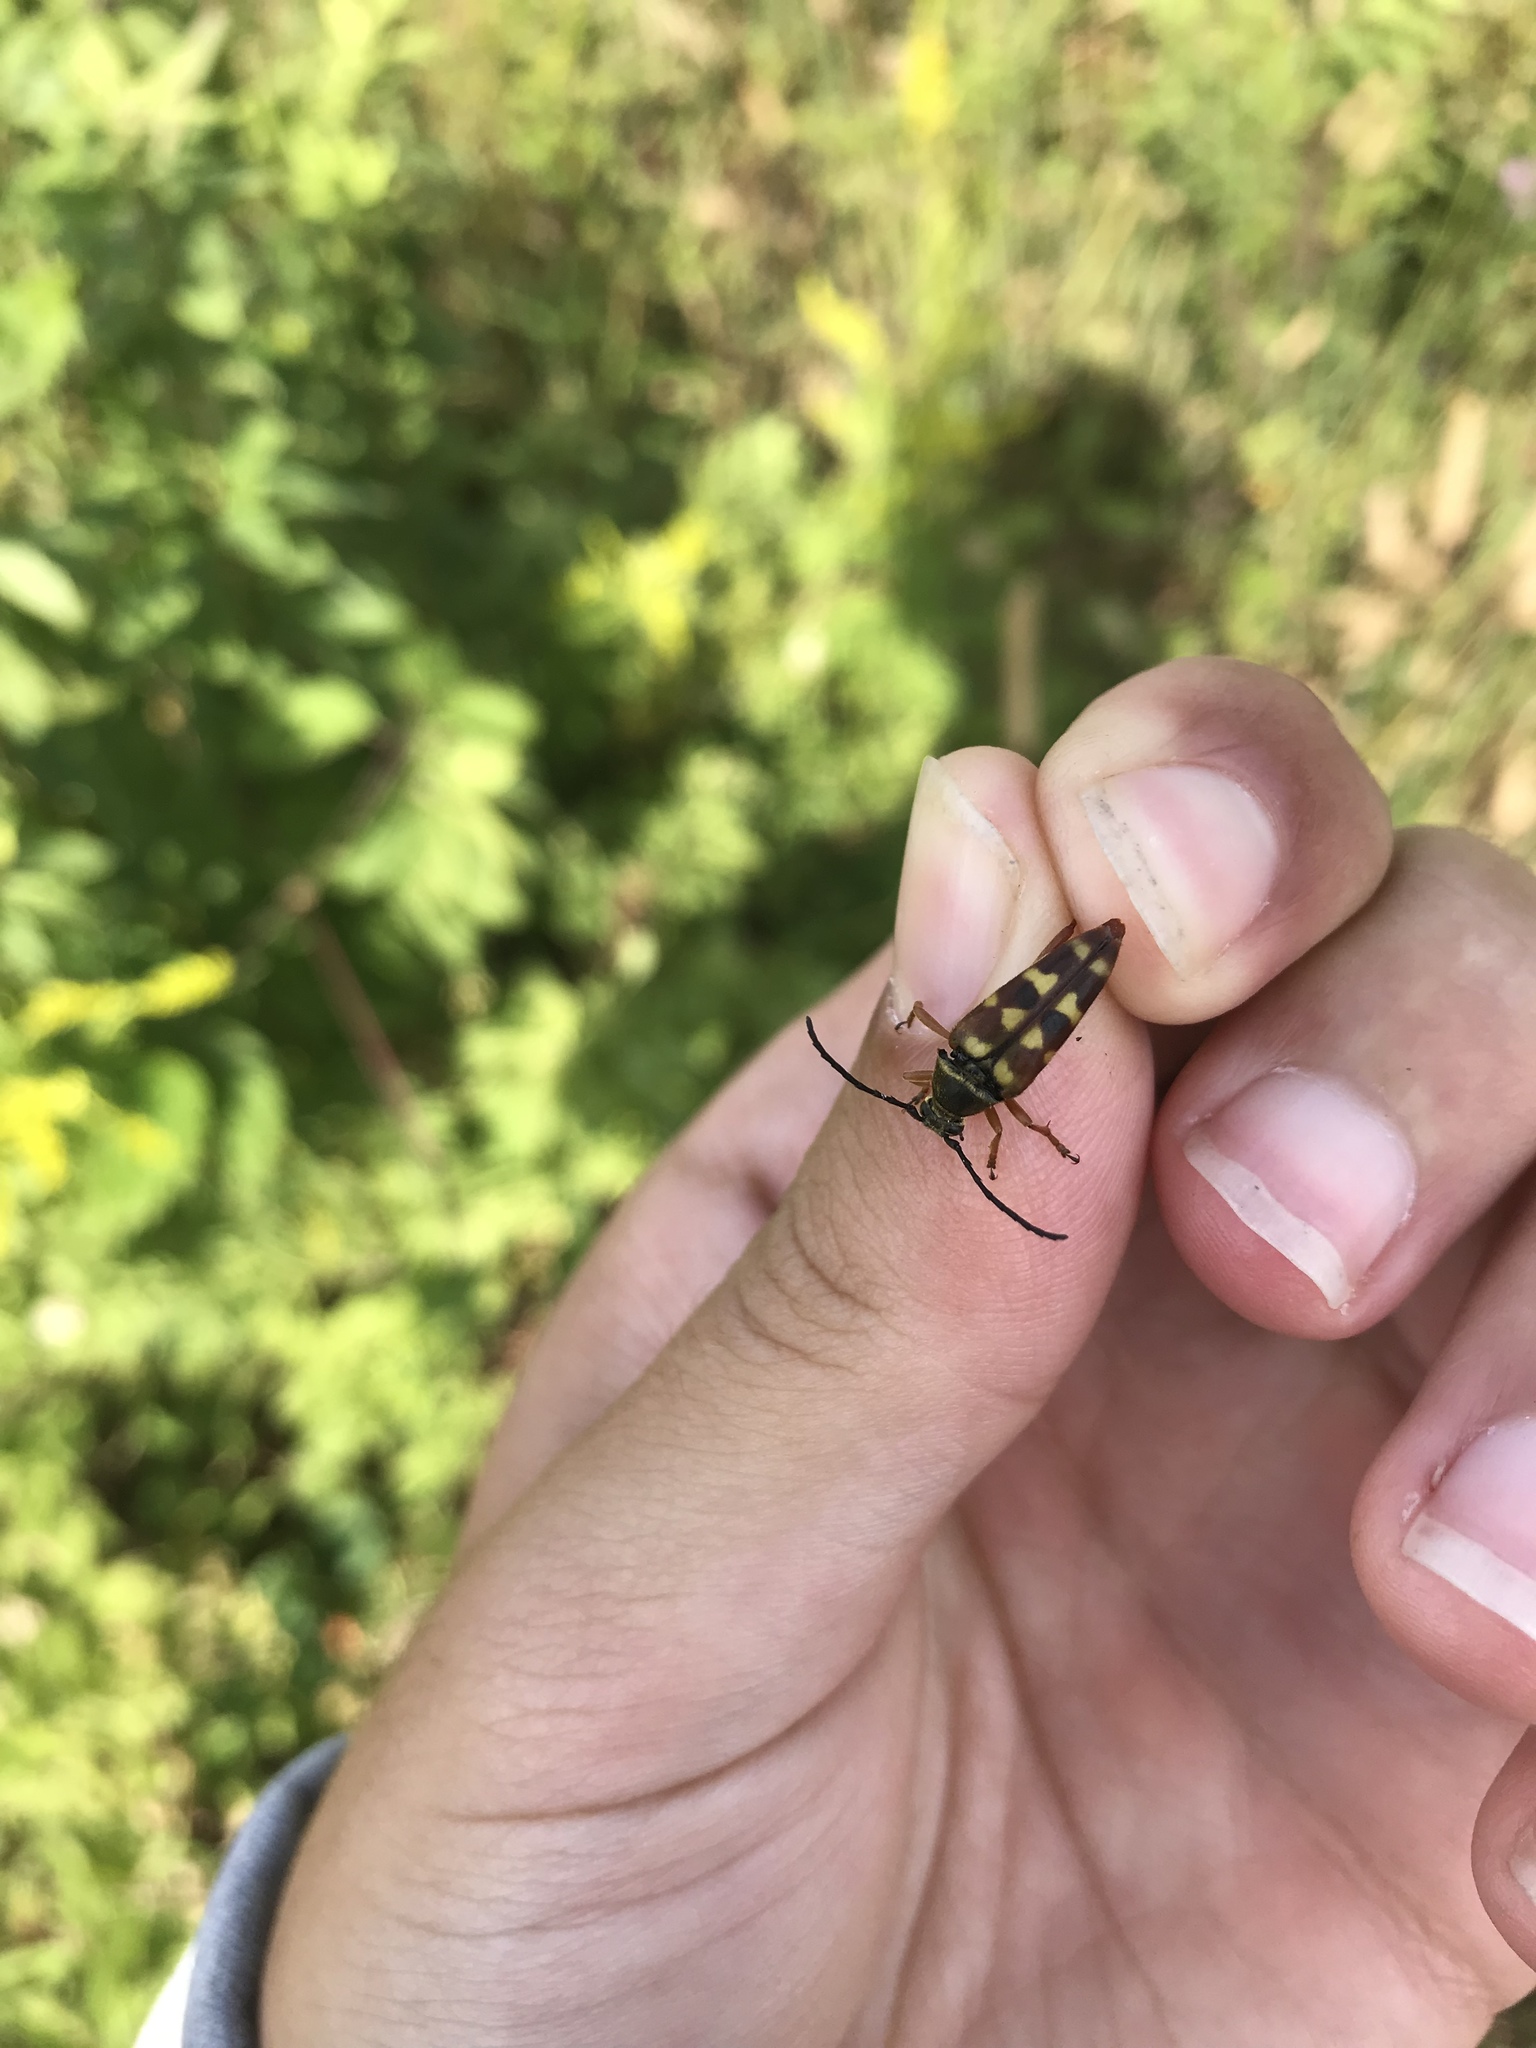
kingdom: Animalia
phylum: Arthropoda
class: Insecta
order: Coleoptera
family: Cerambycidae
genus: Typocerus
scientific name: Typocerus velutinus
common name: Banded longhorn beetle
